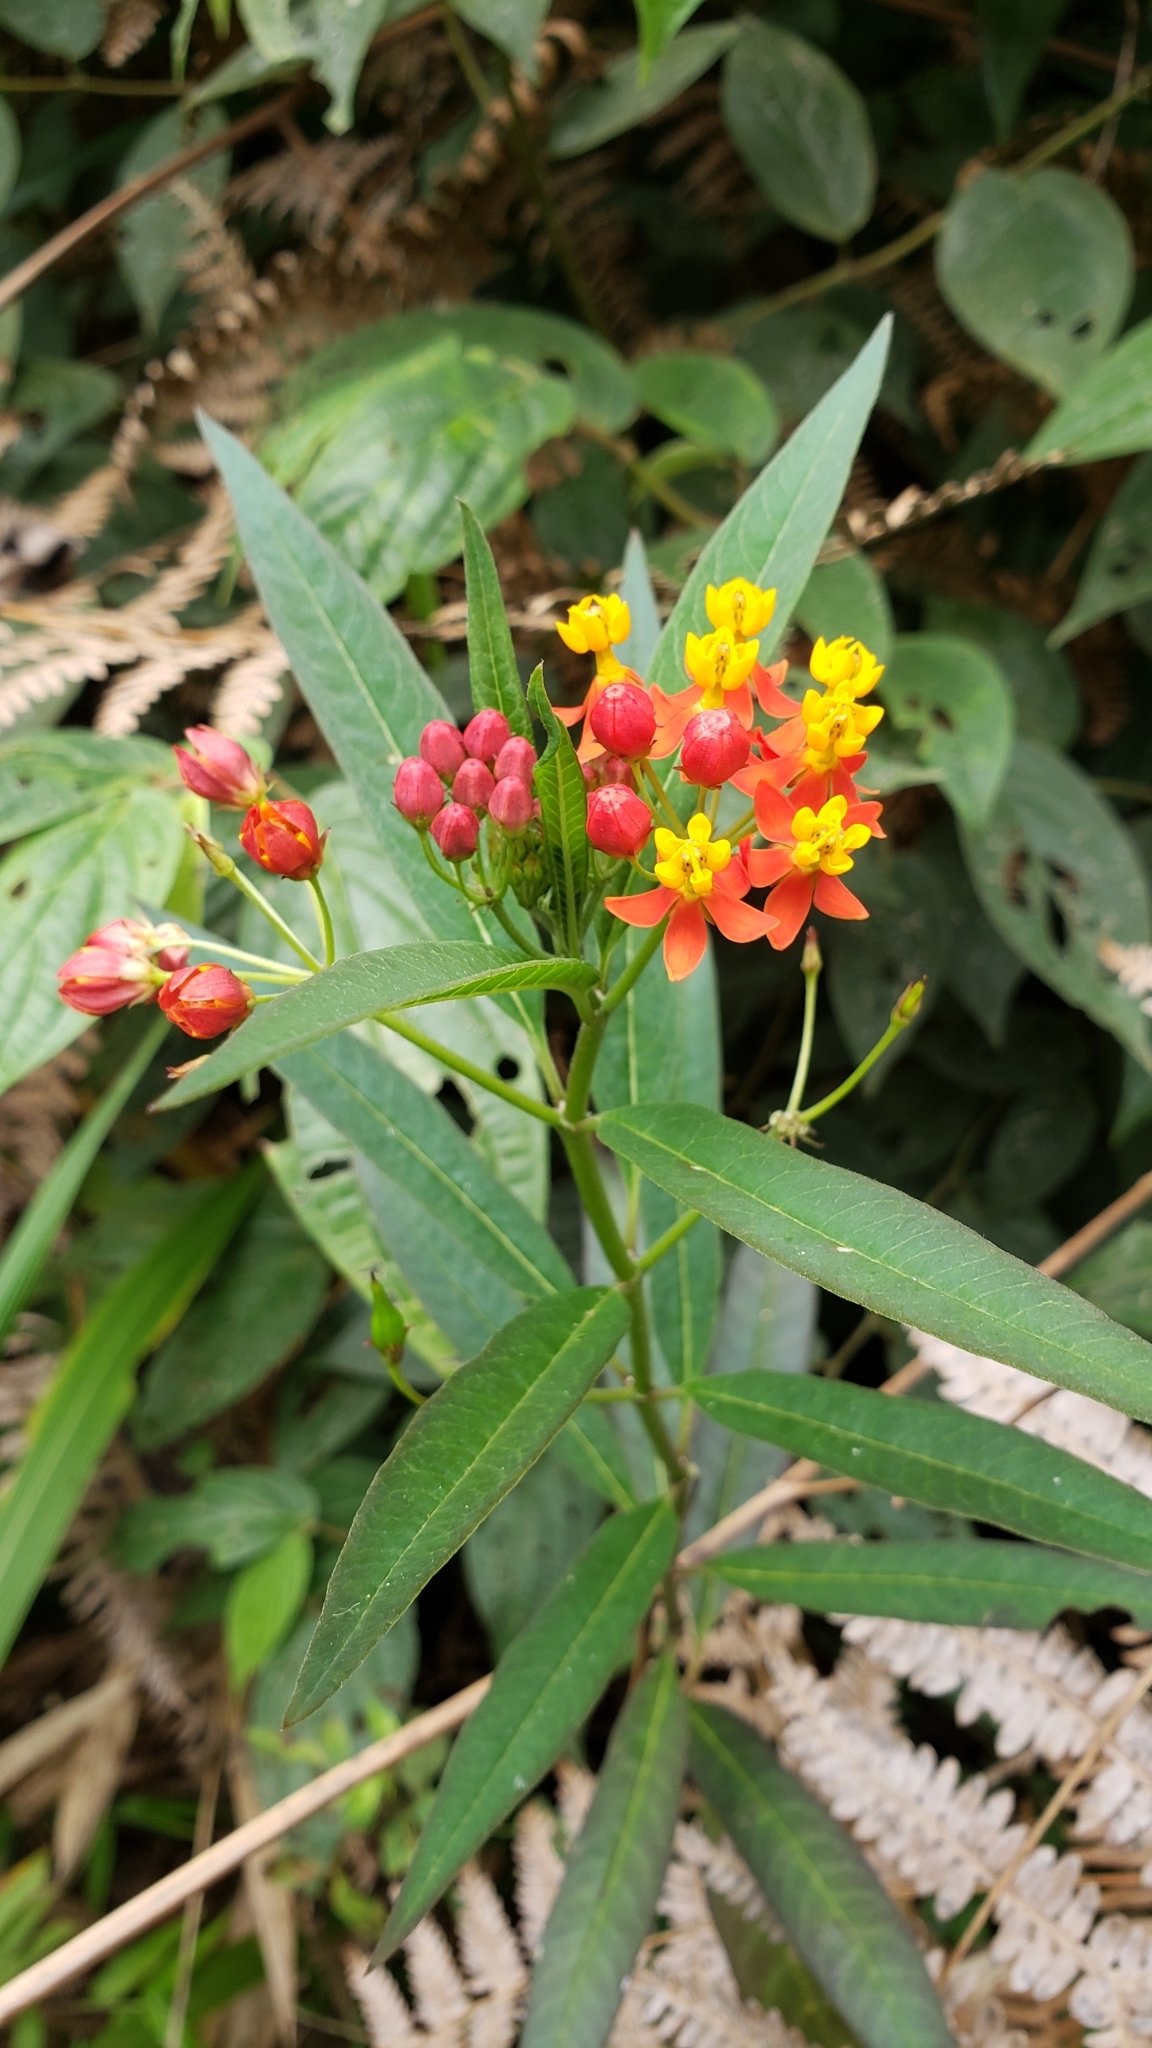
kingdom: Plantae
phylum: Tracheophyta
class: Magnoliopsida
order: Gentianales
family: Apocynaceae
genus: Asclepias
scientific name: Asclepias curassavica
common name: Bloodflower
